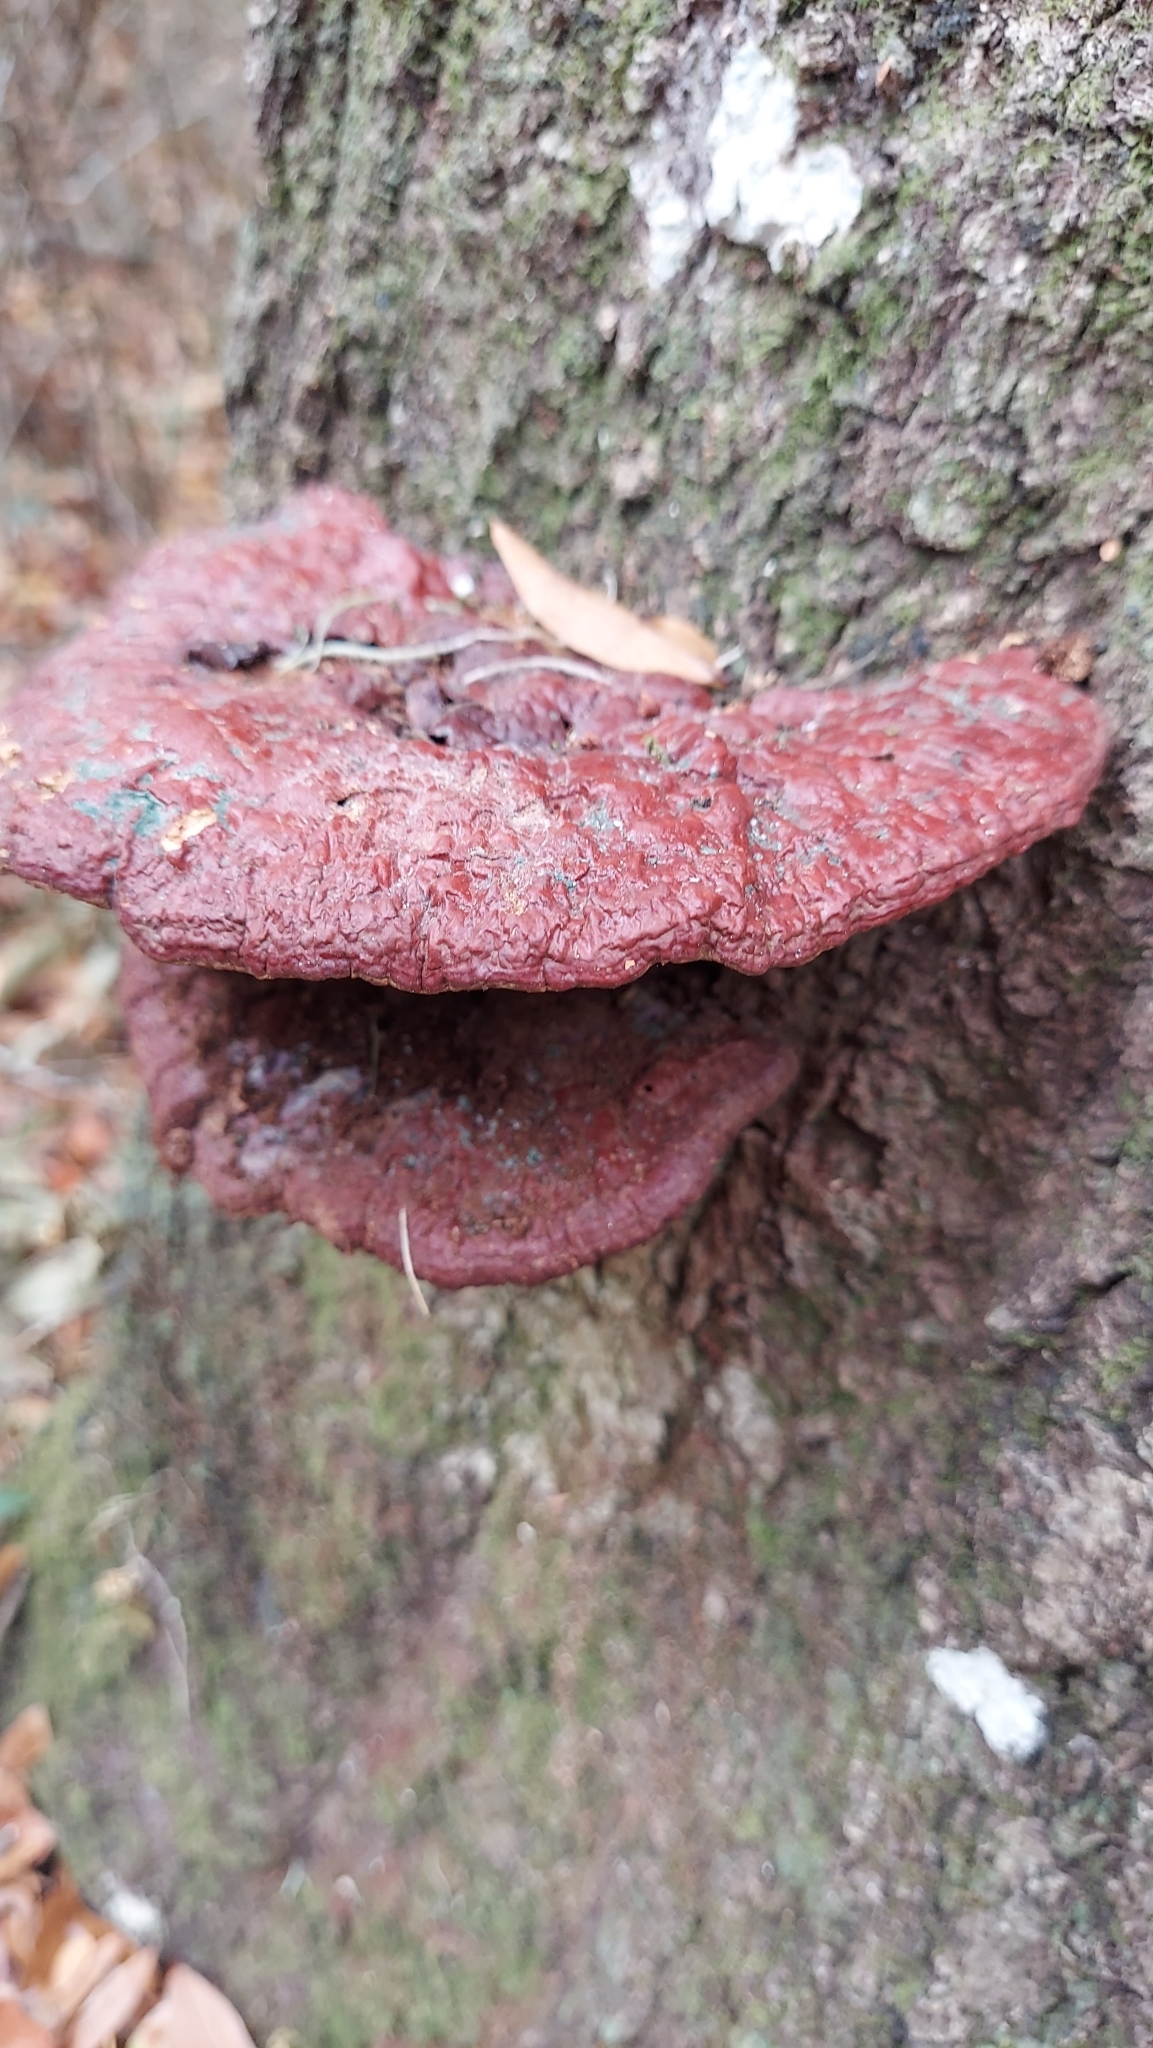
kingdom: Fungi
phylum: Basidiomycota
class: Agaricomycetes
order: Polyporales
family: Polyporaceae
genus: Ganoderma
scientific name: Ganoderma resinaceum
